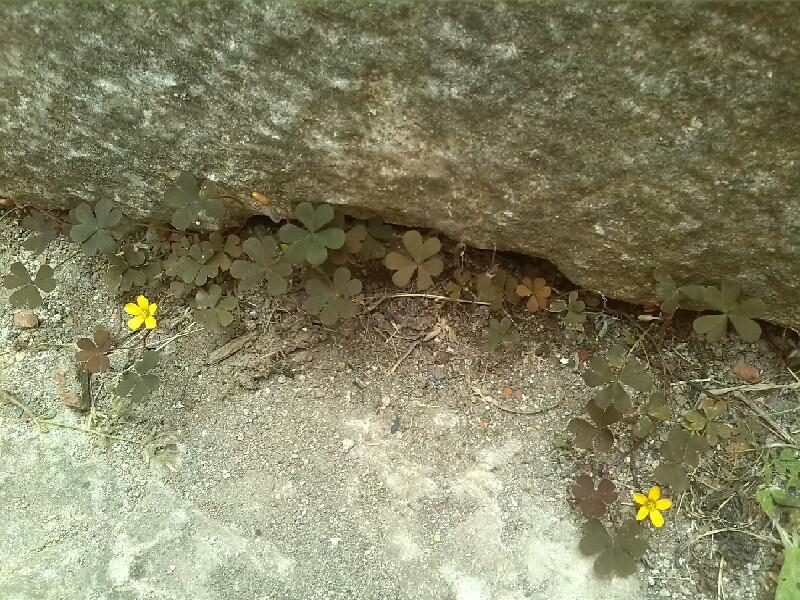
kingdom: Plantae
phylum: Tracheophyta
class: Magnoliopsida
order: Oxalidales
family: Oxalidaceae
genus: Oxalis
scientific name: Oxalis corniculata
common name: Procumbent yellow-sorrel
